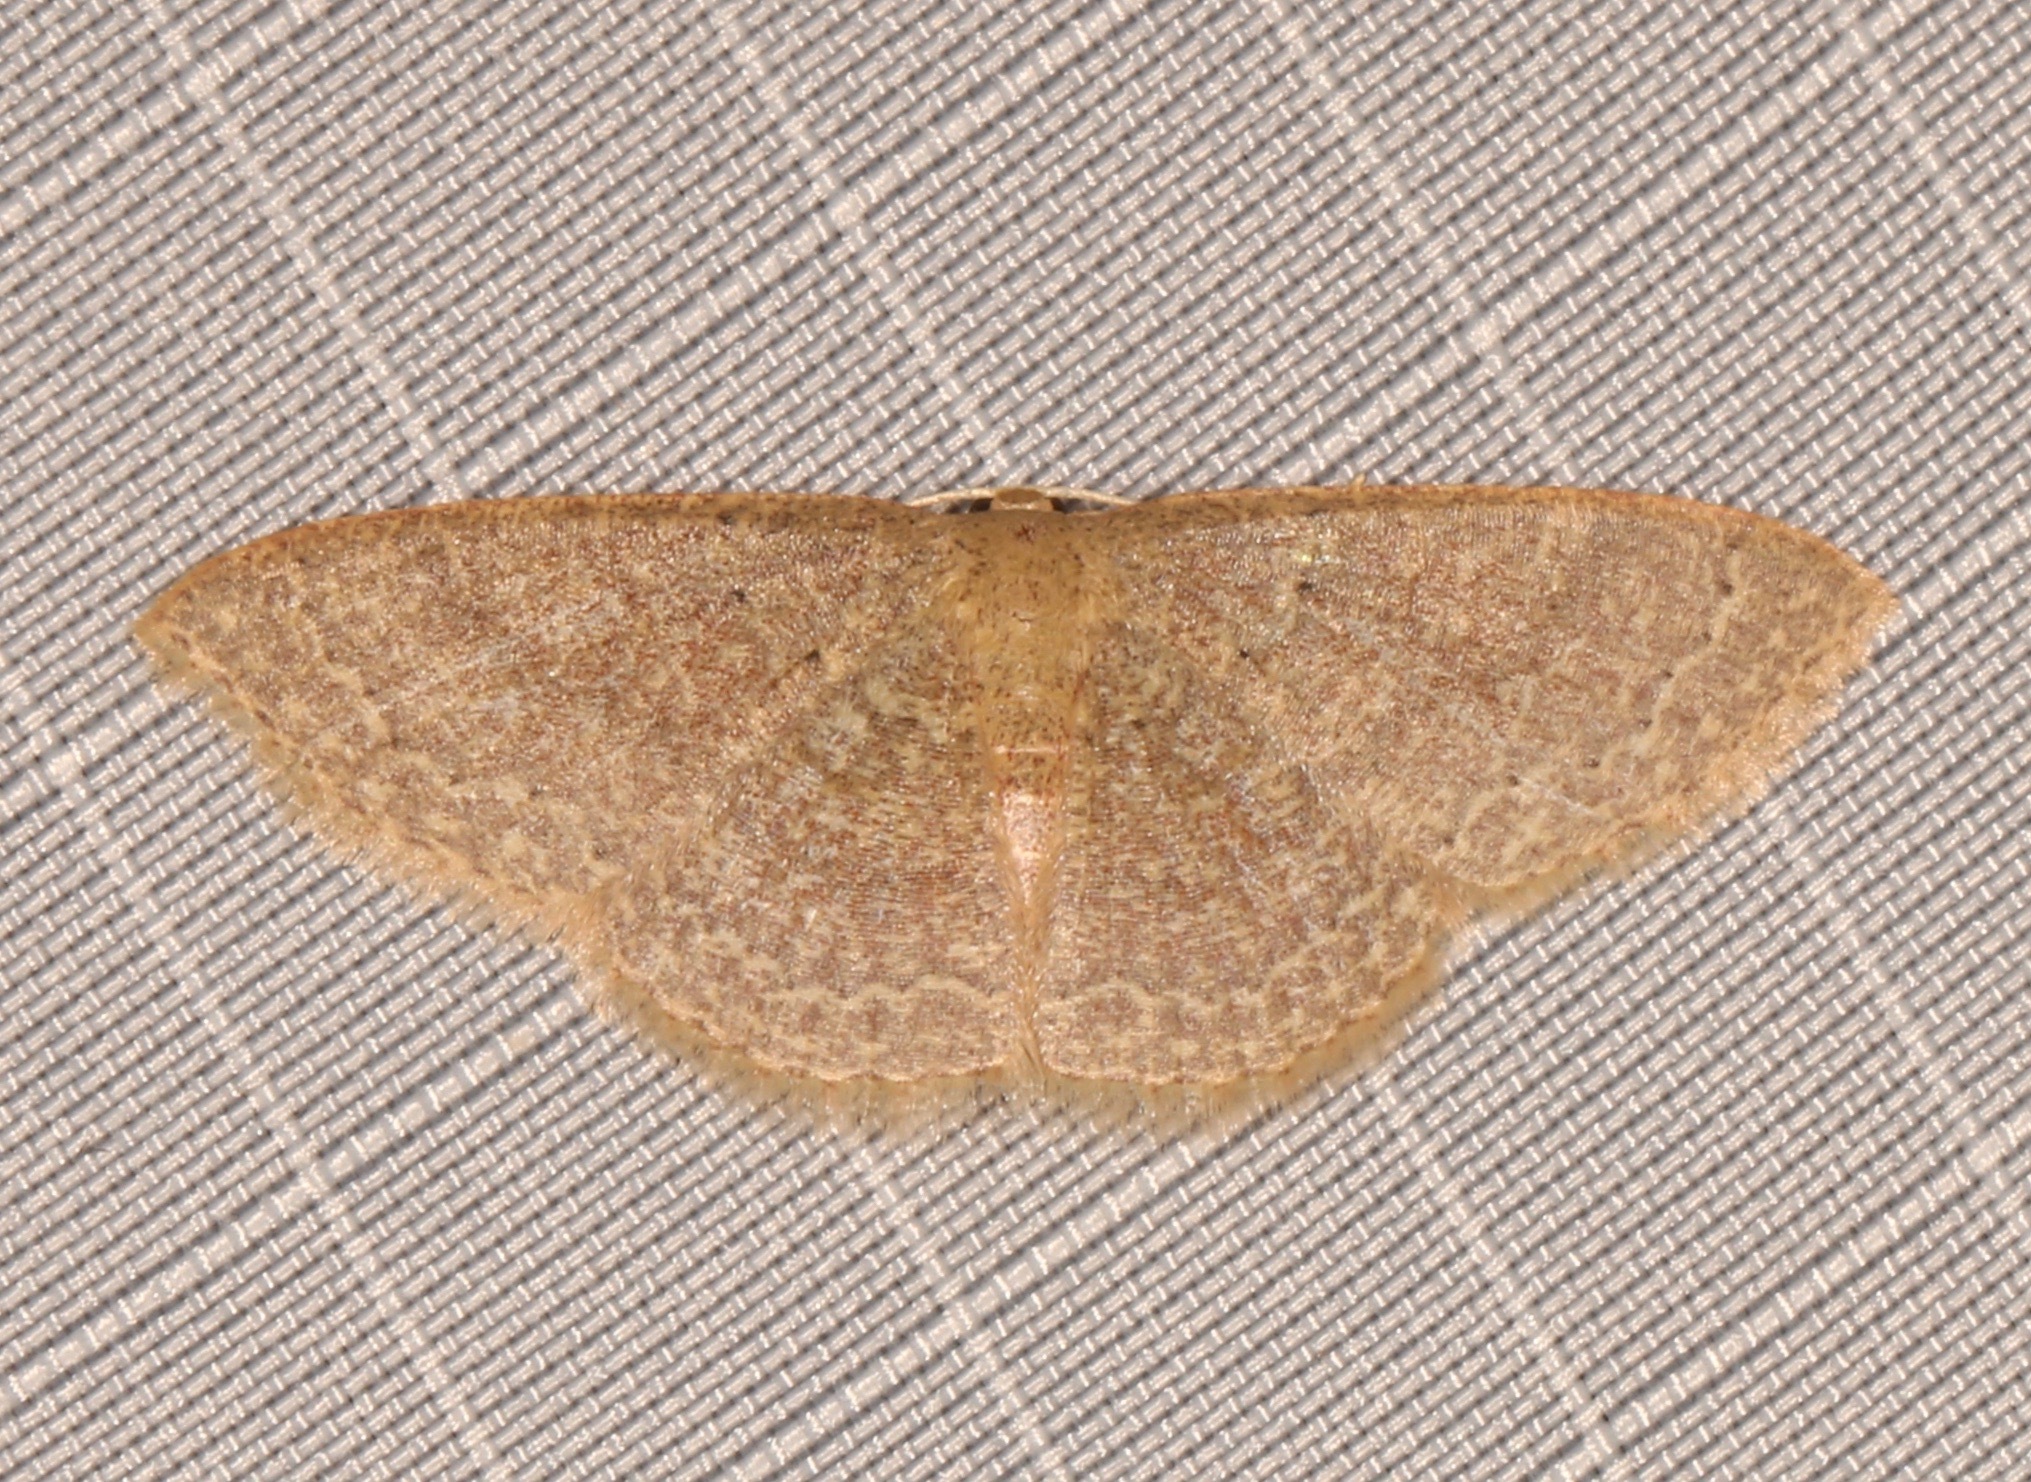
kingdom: Animalia
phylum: Arthropoda
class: Insecta
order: Lepidoptera
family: Geometridae
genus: Pleuroprucha
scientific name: Pleuroprucha insulsaria
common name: Common tan wave
